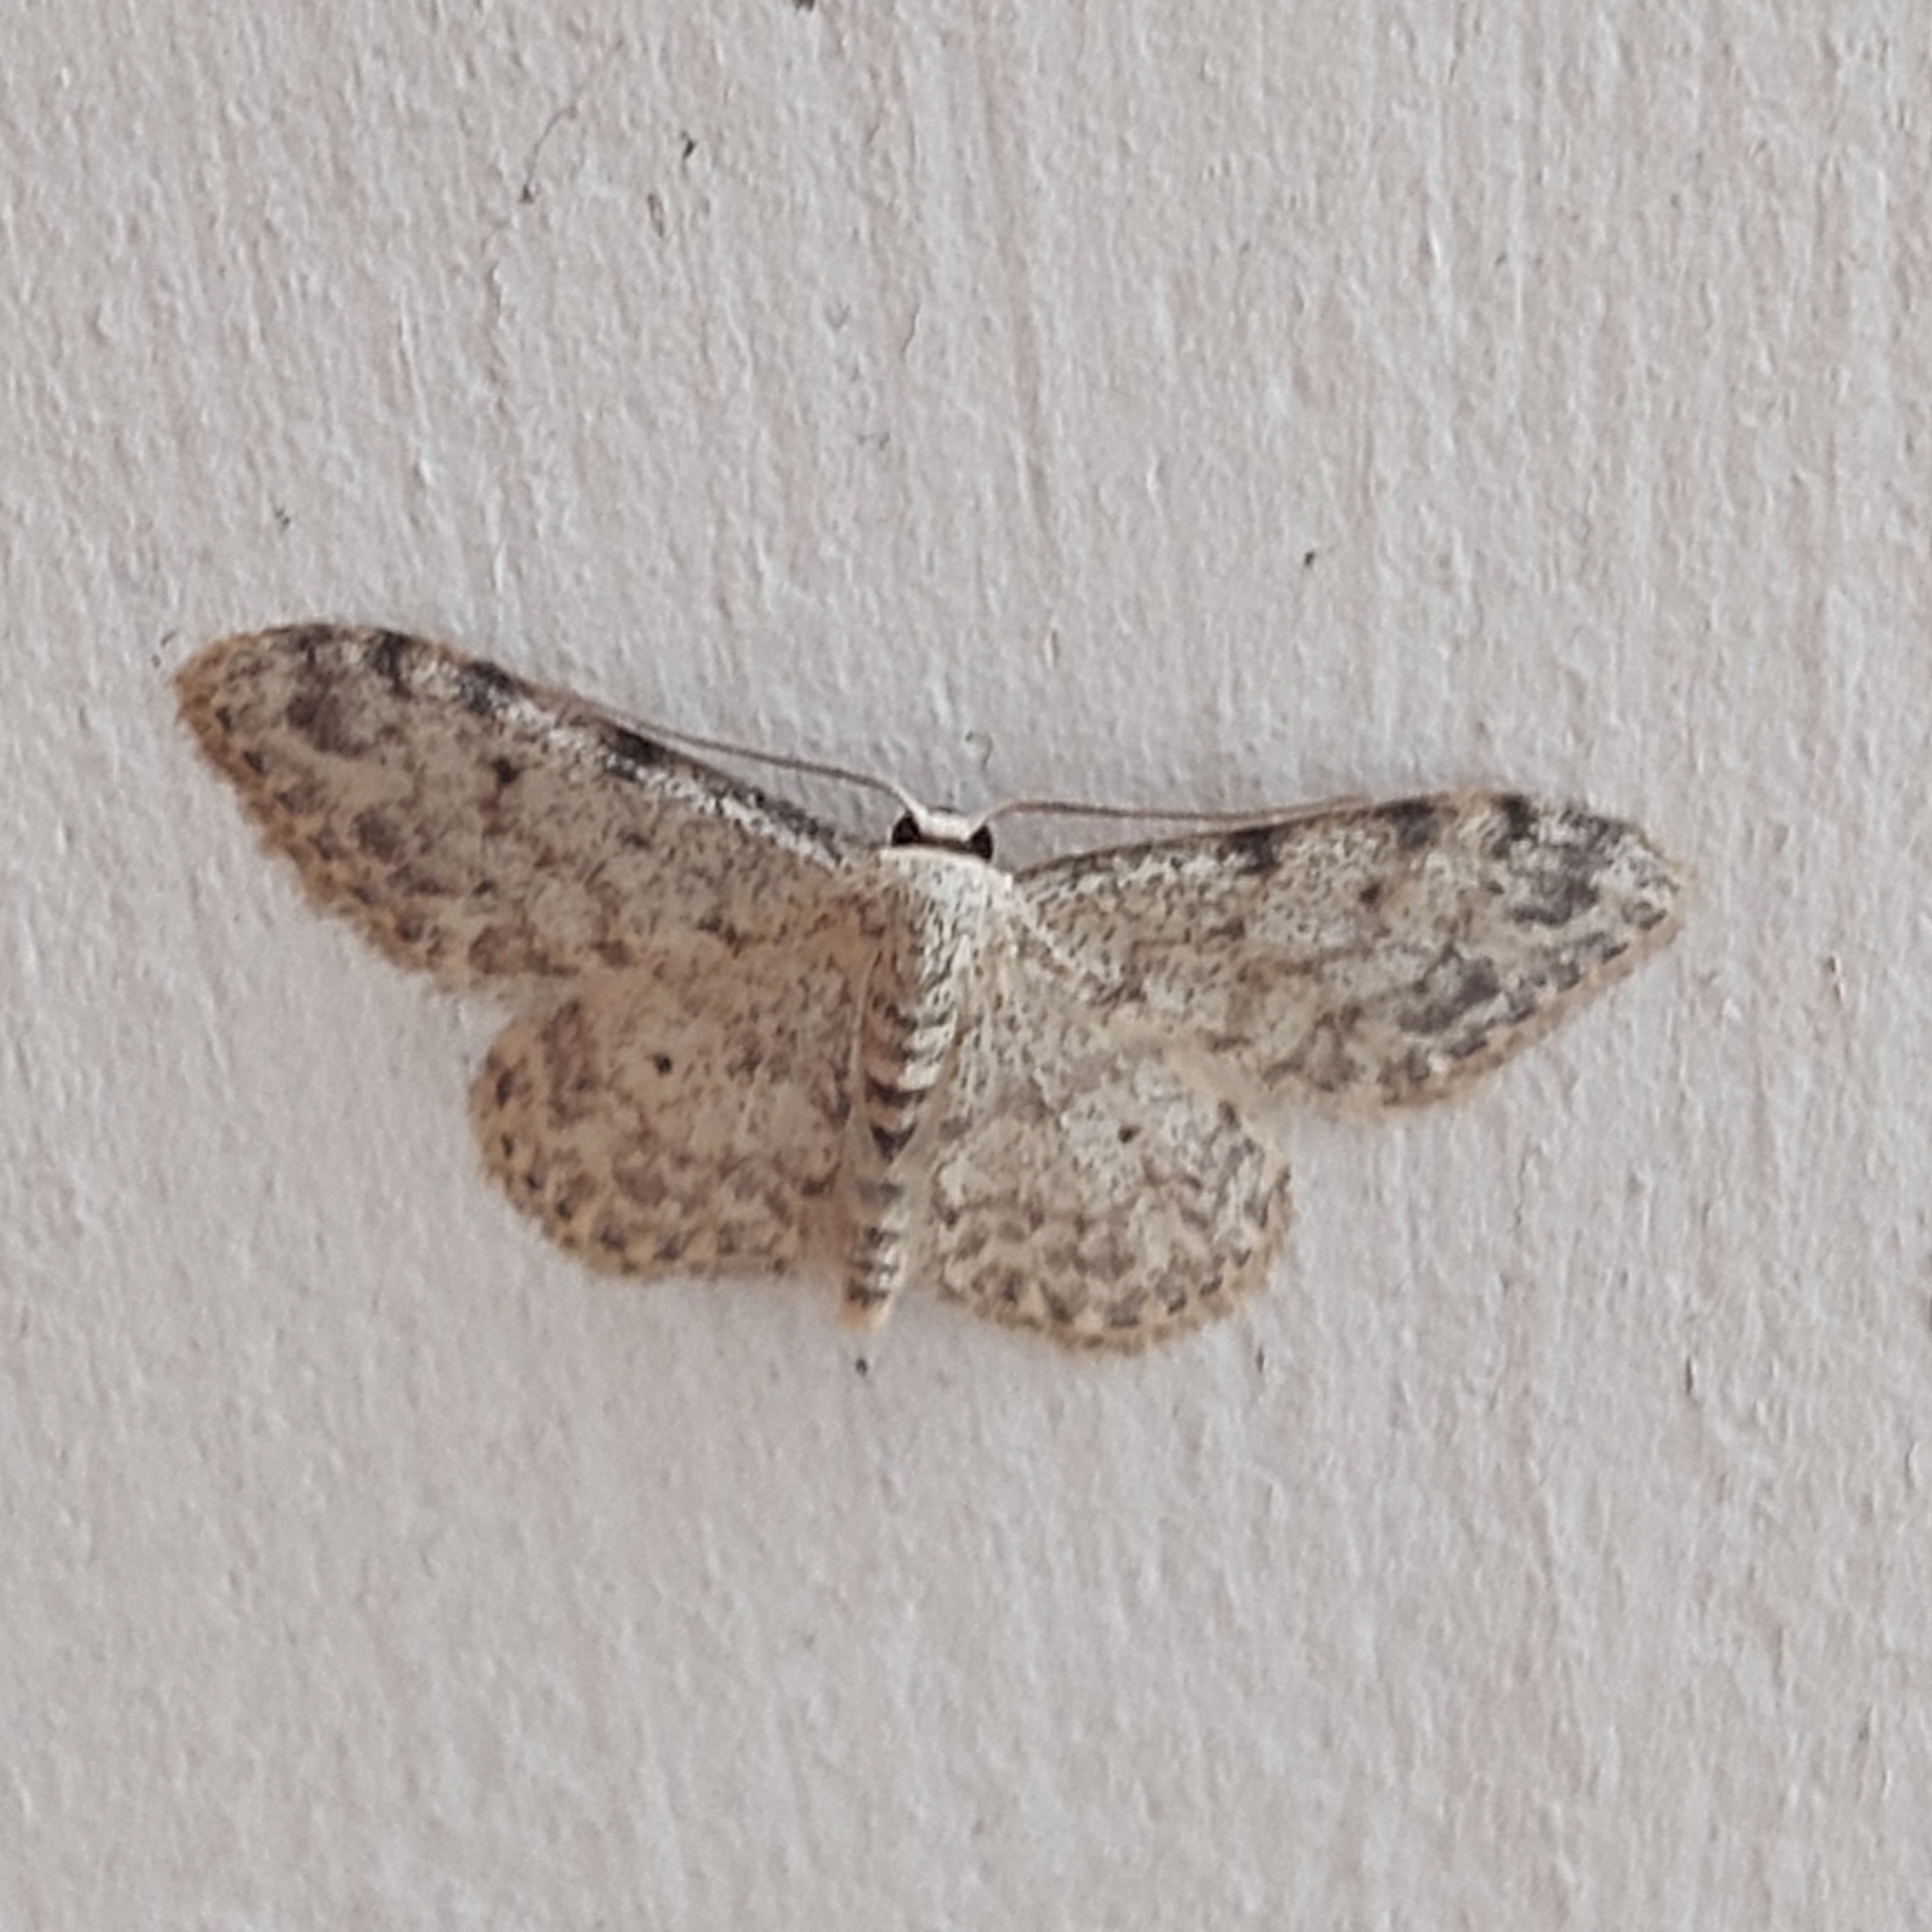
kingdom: Animalia
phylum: Arthropoda
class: Insecta
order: Lepidoptera
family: Geometridae
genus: Idaea
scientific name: Idaea camparia
